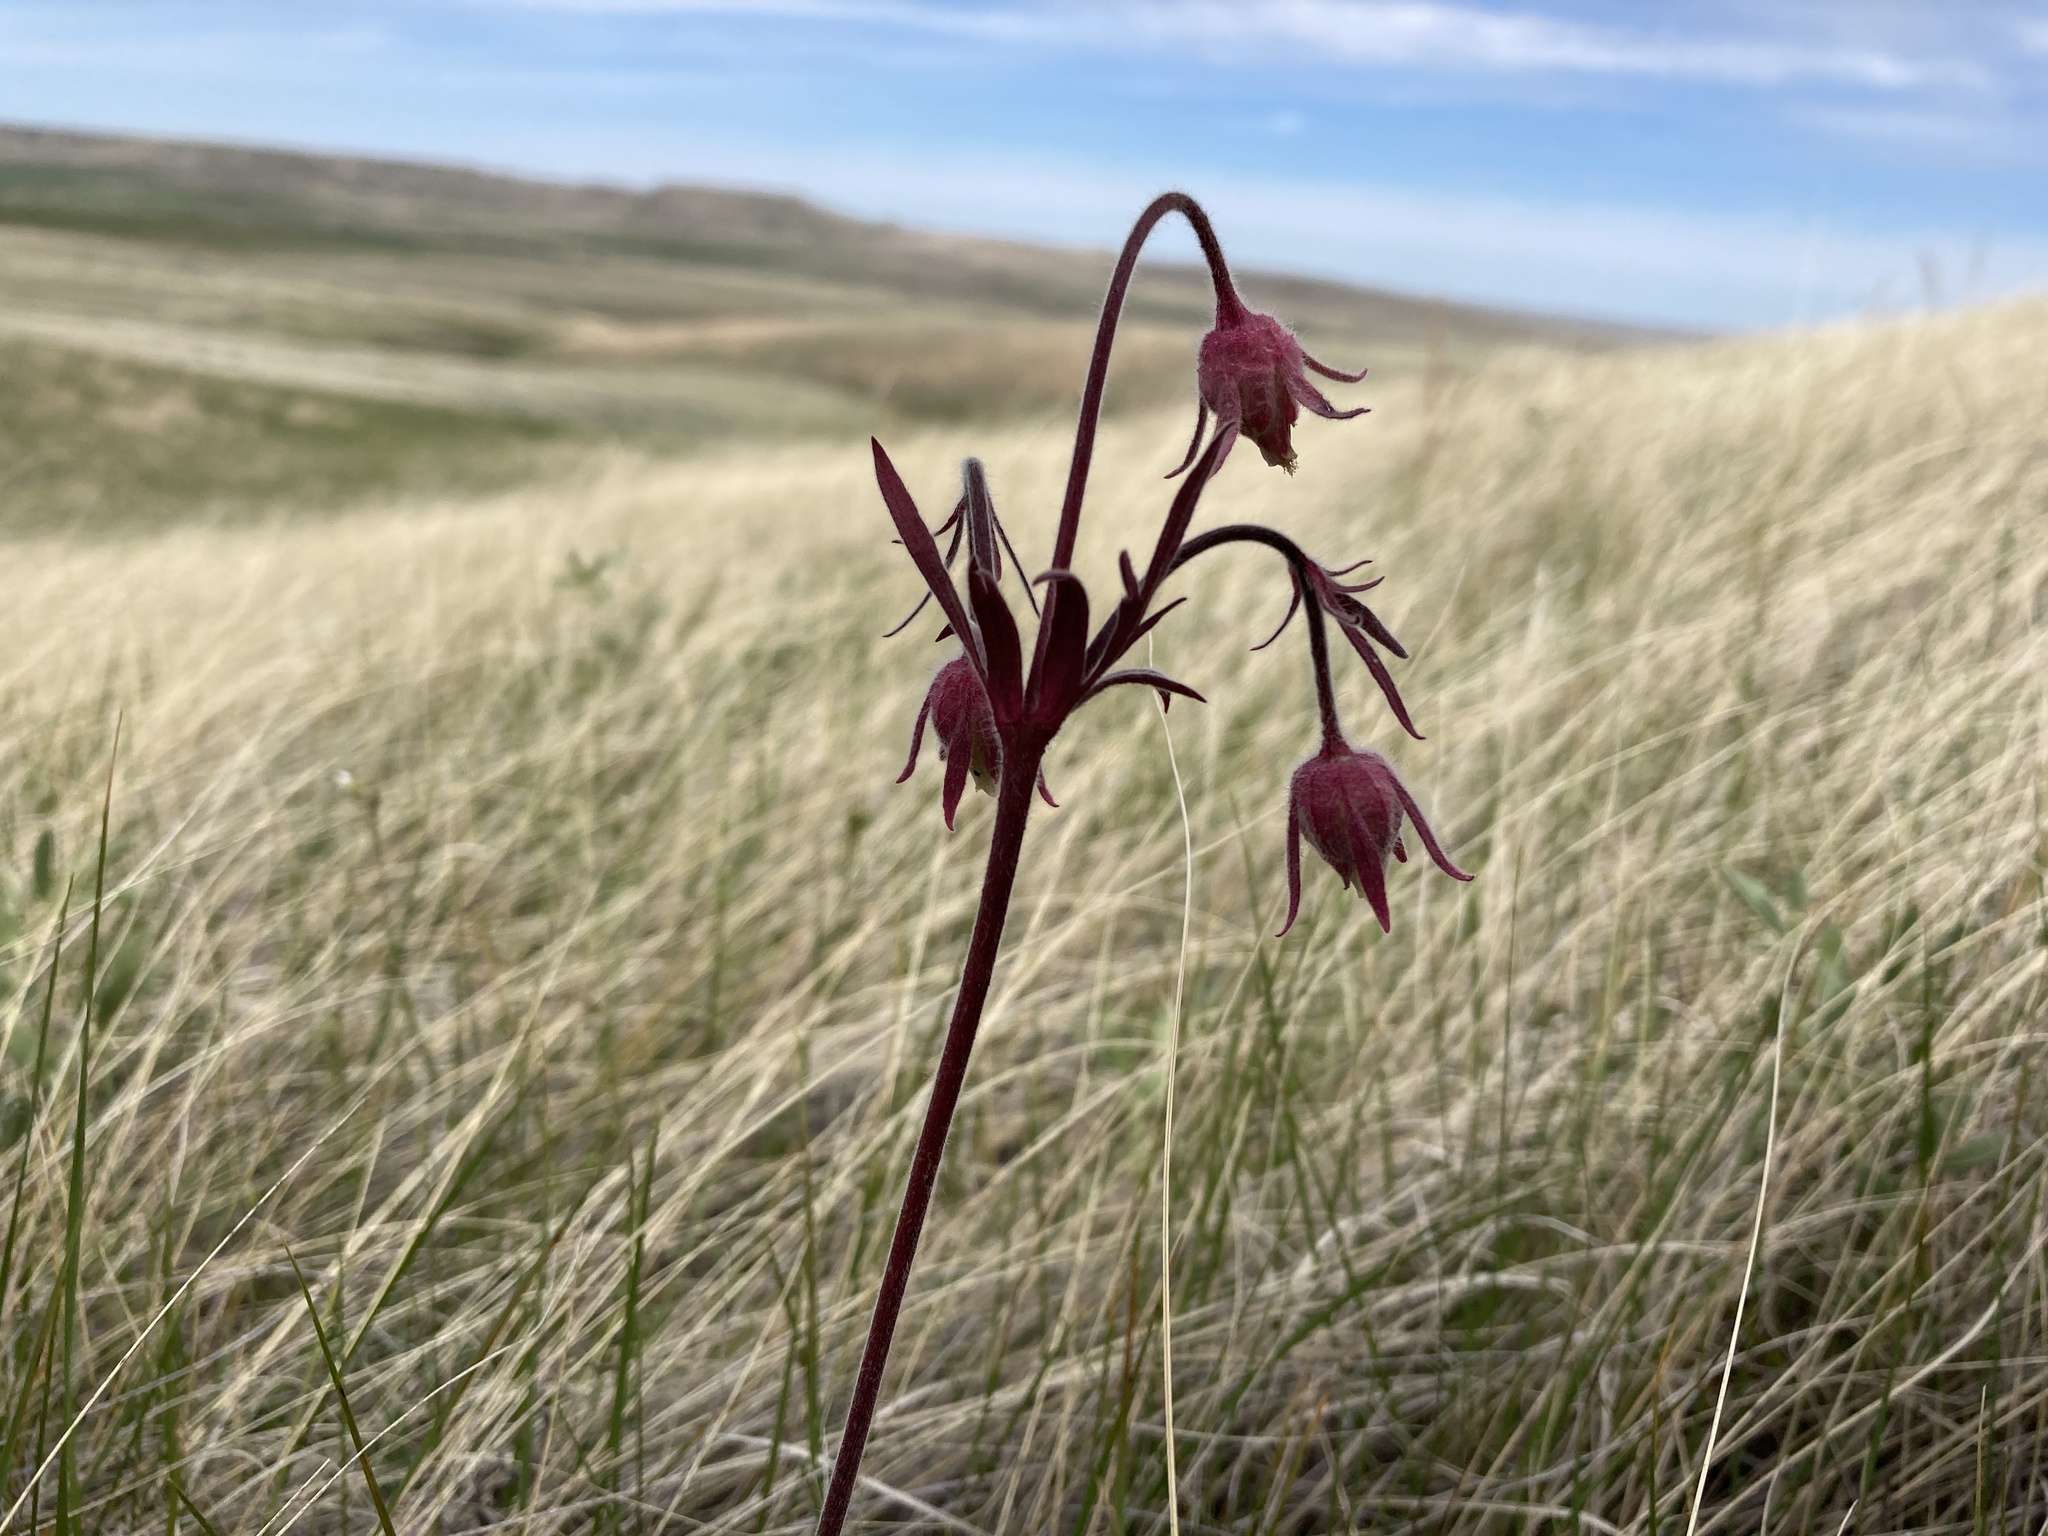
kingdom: Plantae
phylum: Tracheophyta
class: Magnoliopsida
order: Rosales
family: Rosaceae
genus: Geum
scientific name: Geum triflorum
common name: Old man's whiskers
